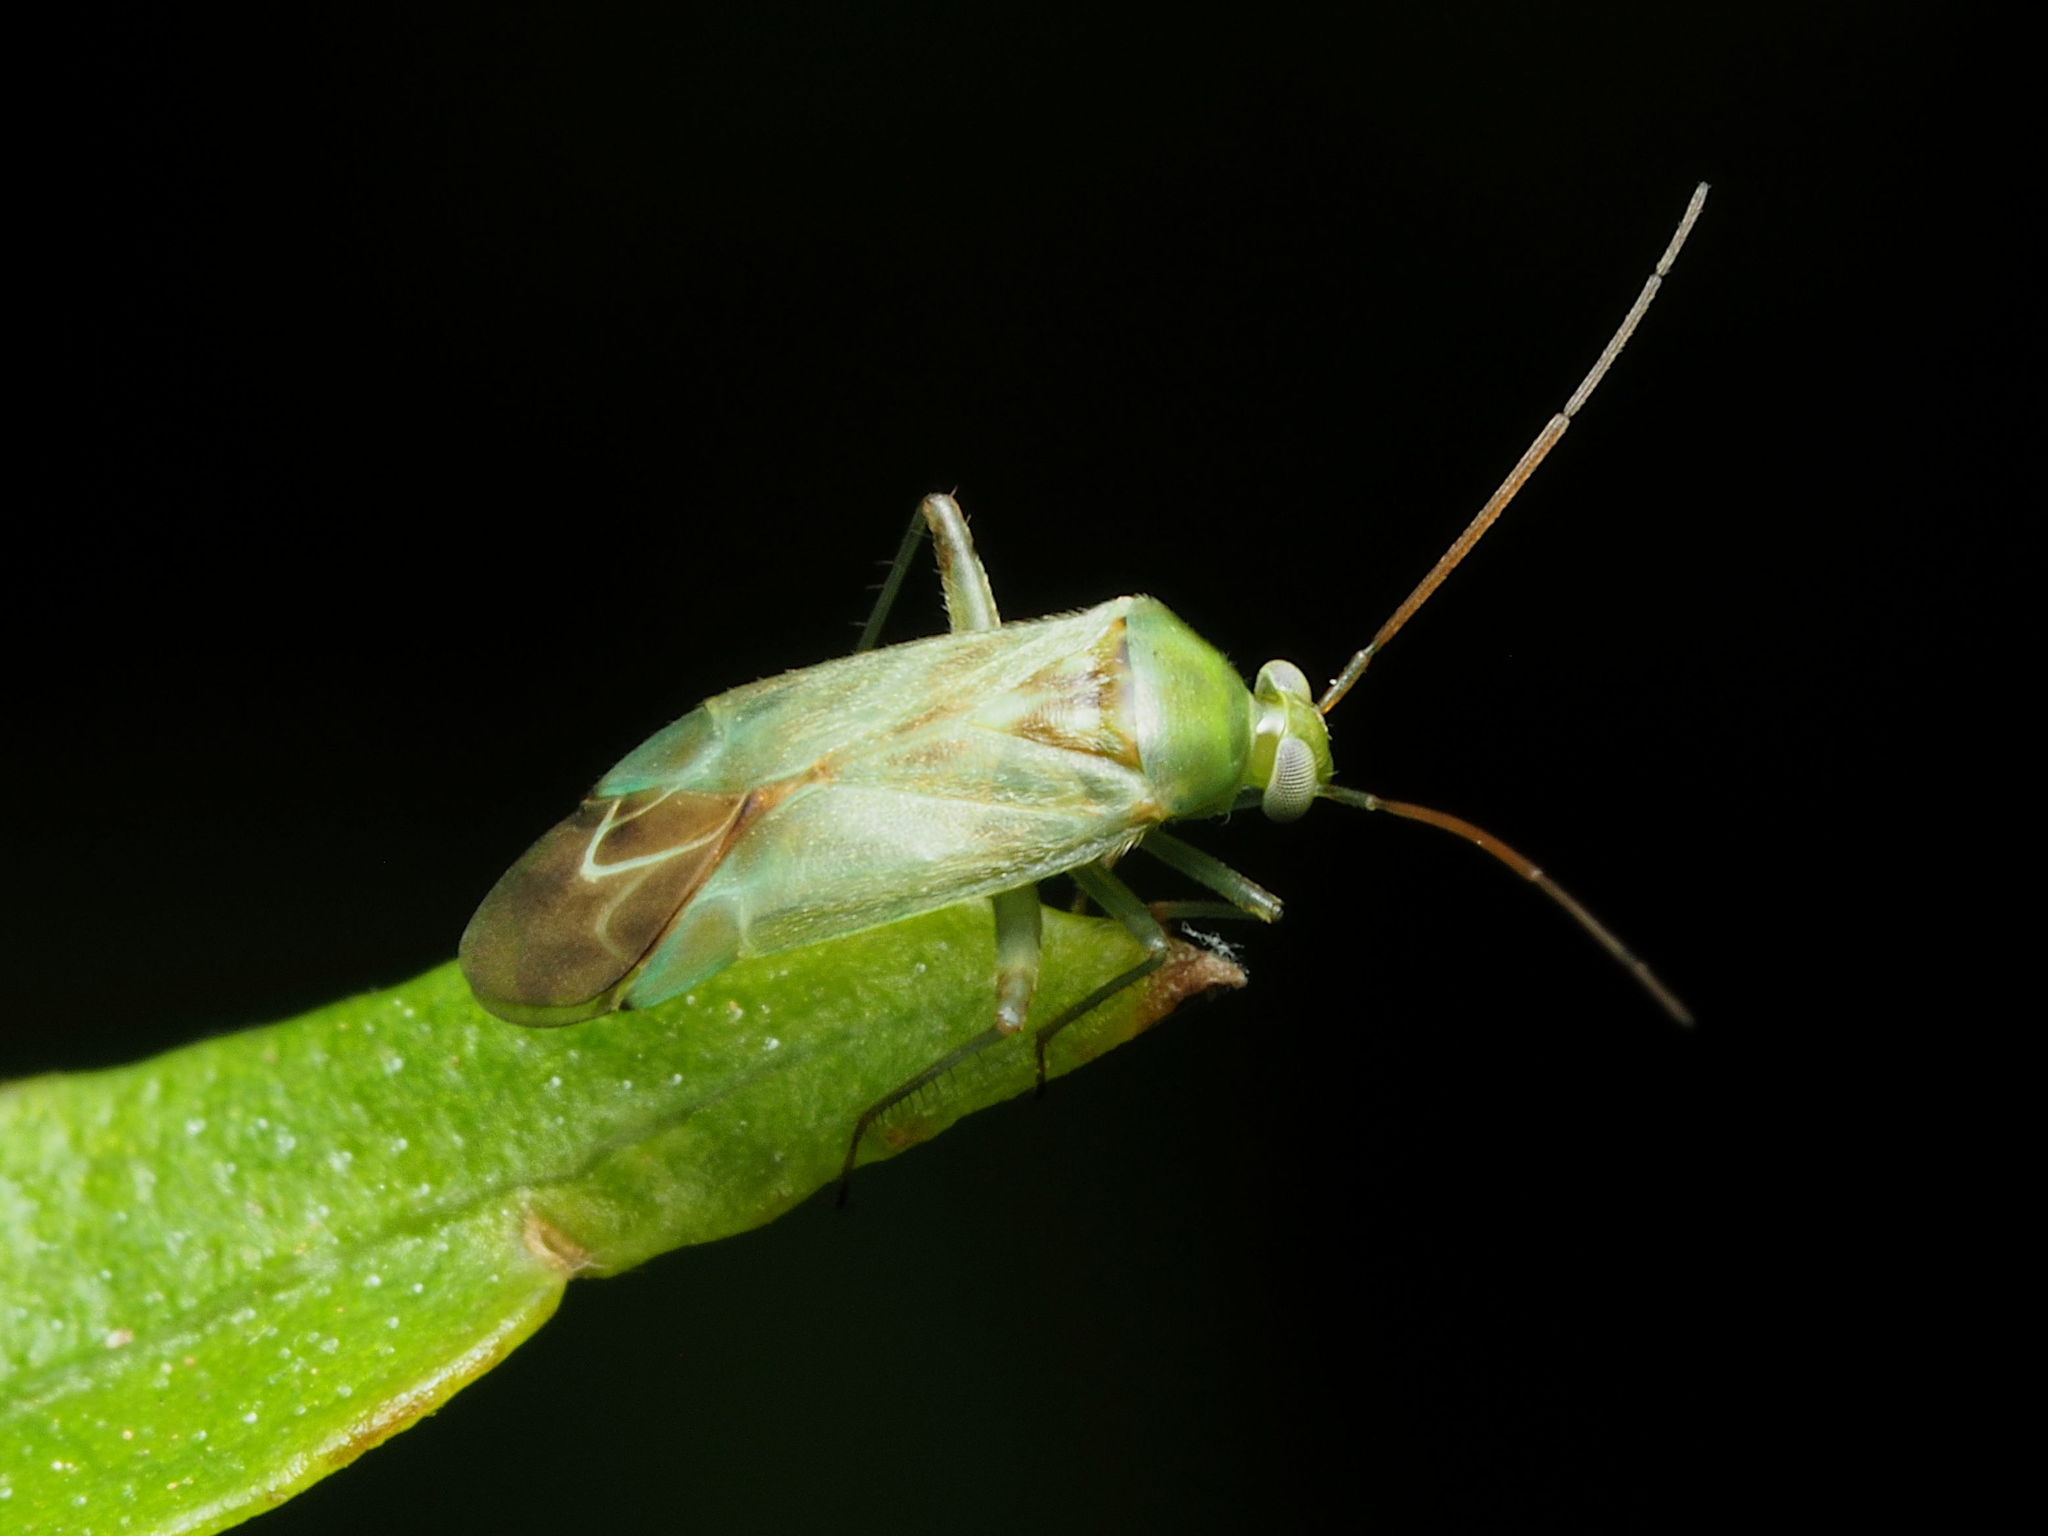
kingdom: Animalia
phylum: Arthropoda
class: Insecta
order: Hemiptera
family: Miridae
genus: Taylorilygus
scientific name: Taylorilygus apicalis
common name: Plant bug
